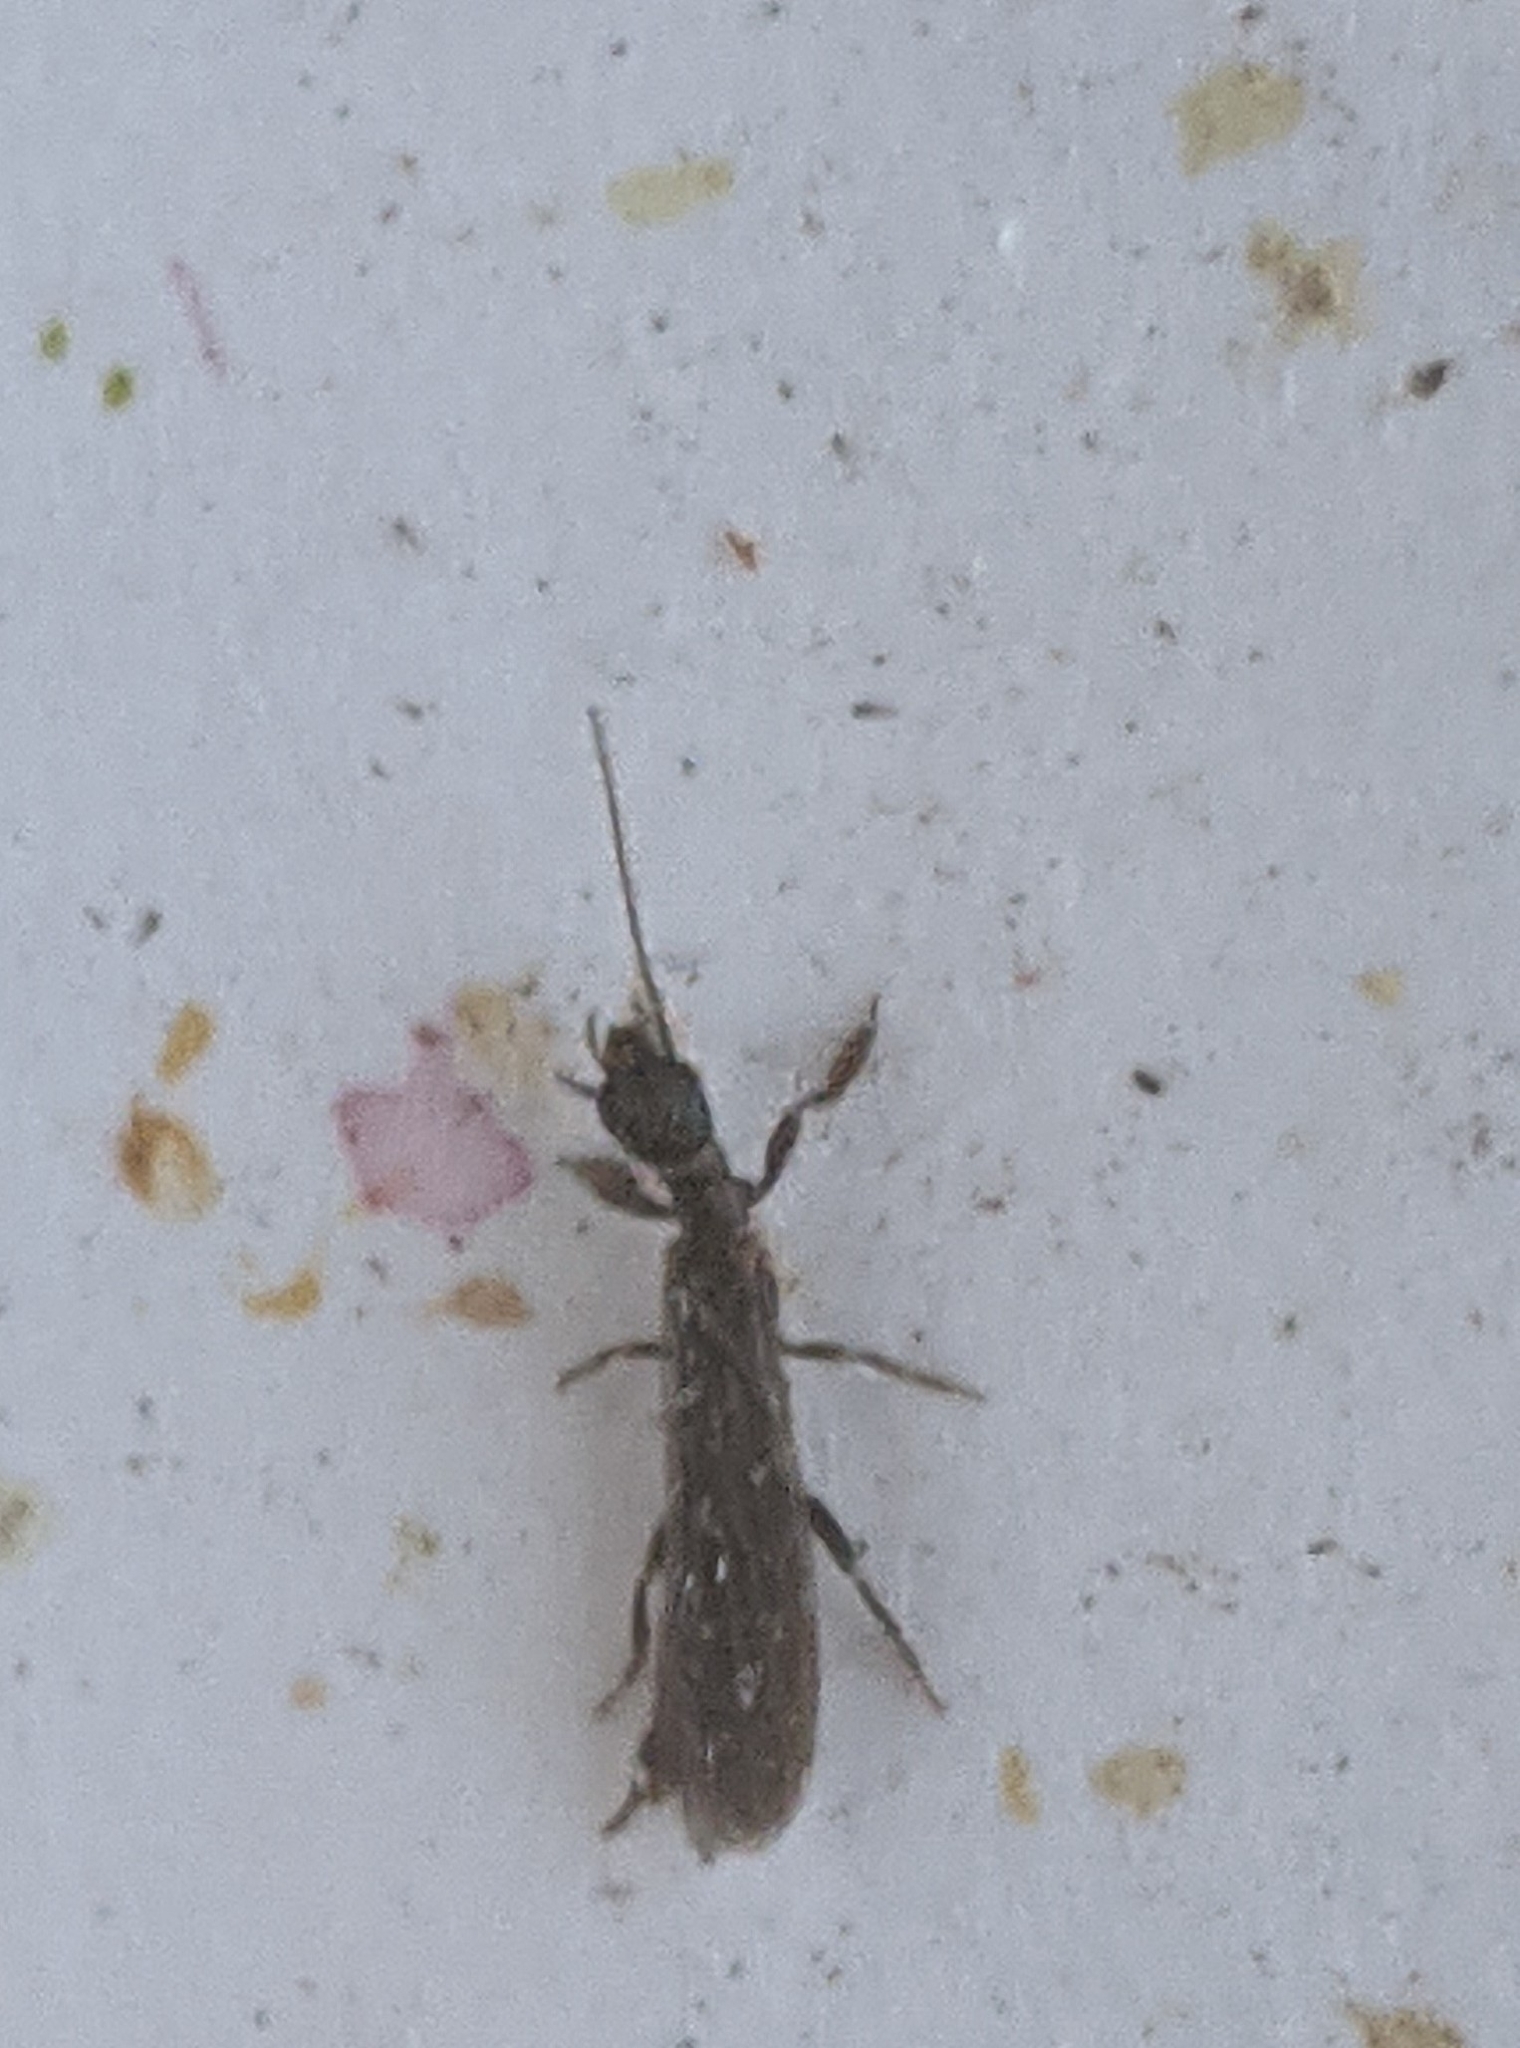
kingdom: Animalia
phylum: Arthropoda
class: Insecta
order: Embioptera
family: Oligotomidae
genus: Oligotoma
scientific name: Oligotoma nigra
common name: Black webspinner
